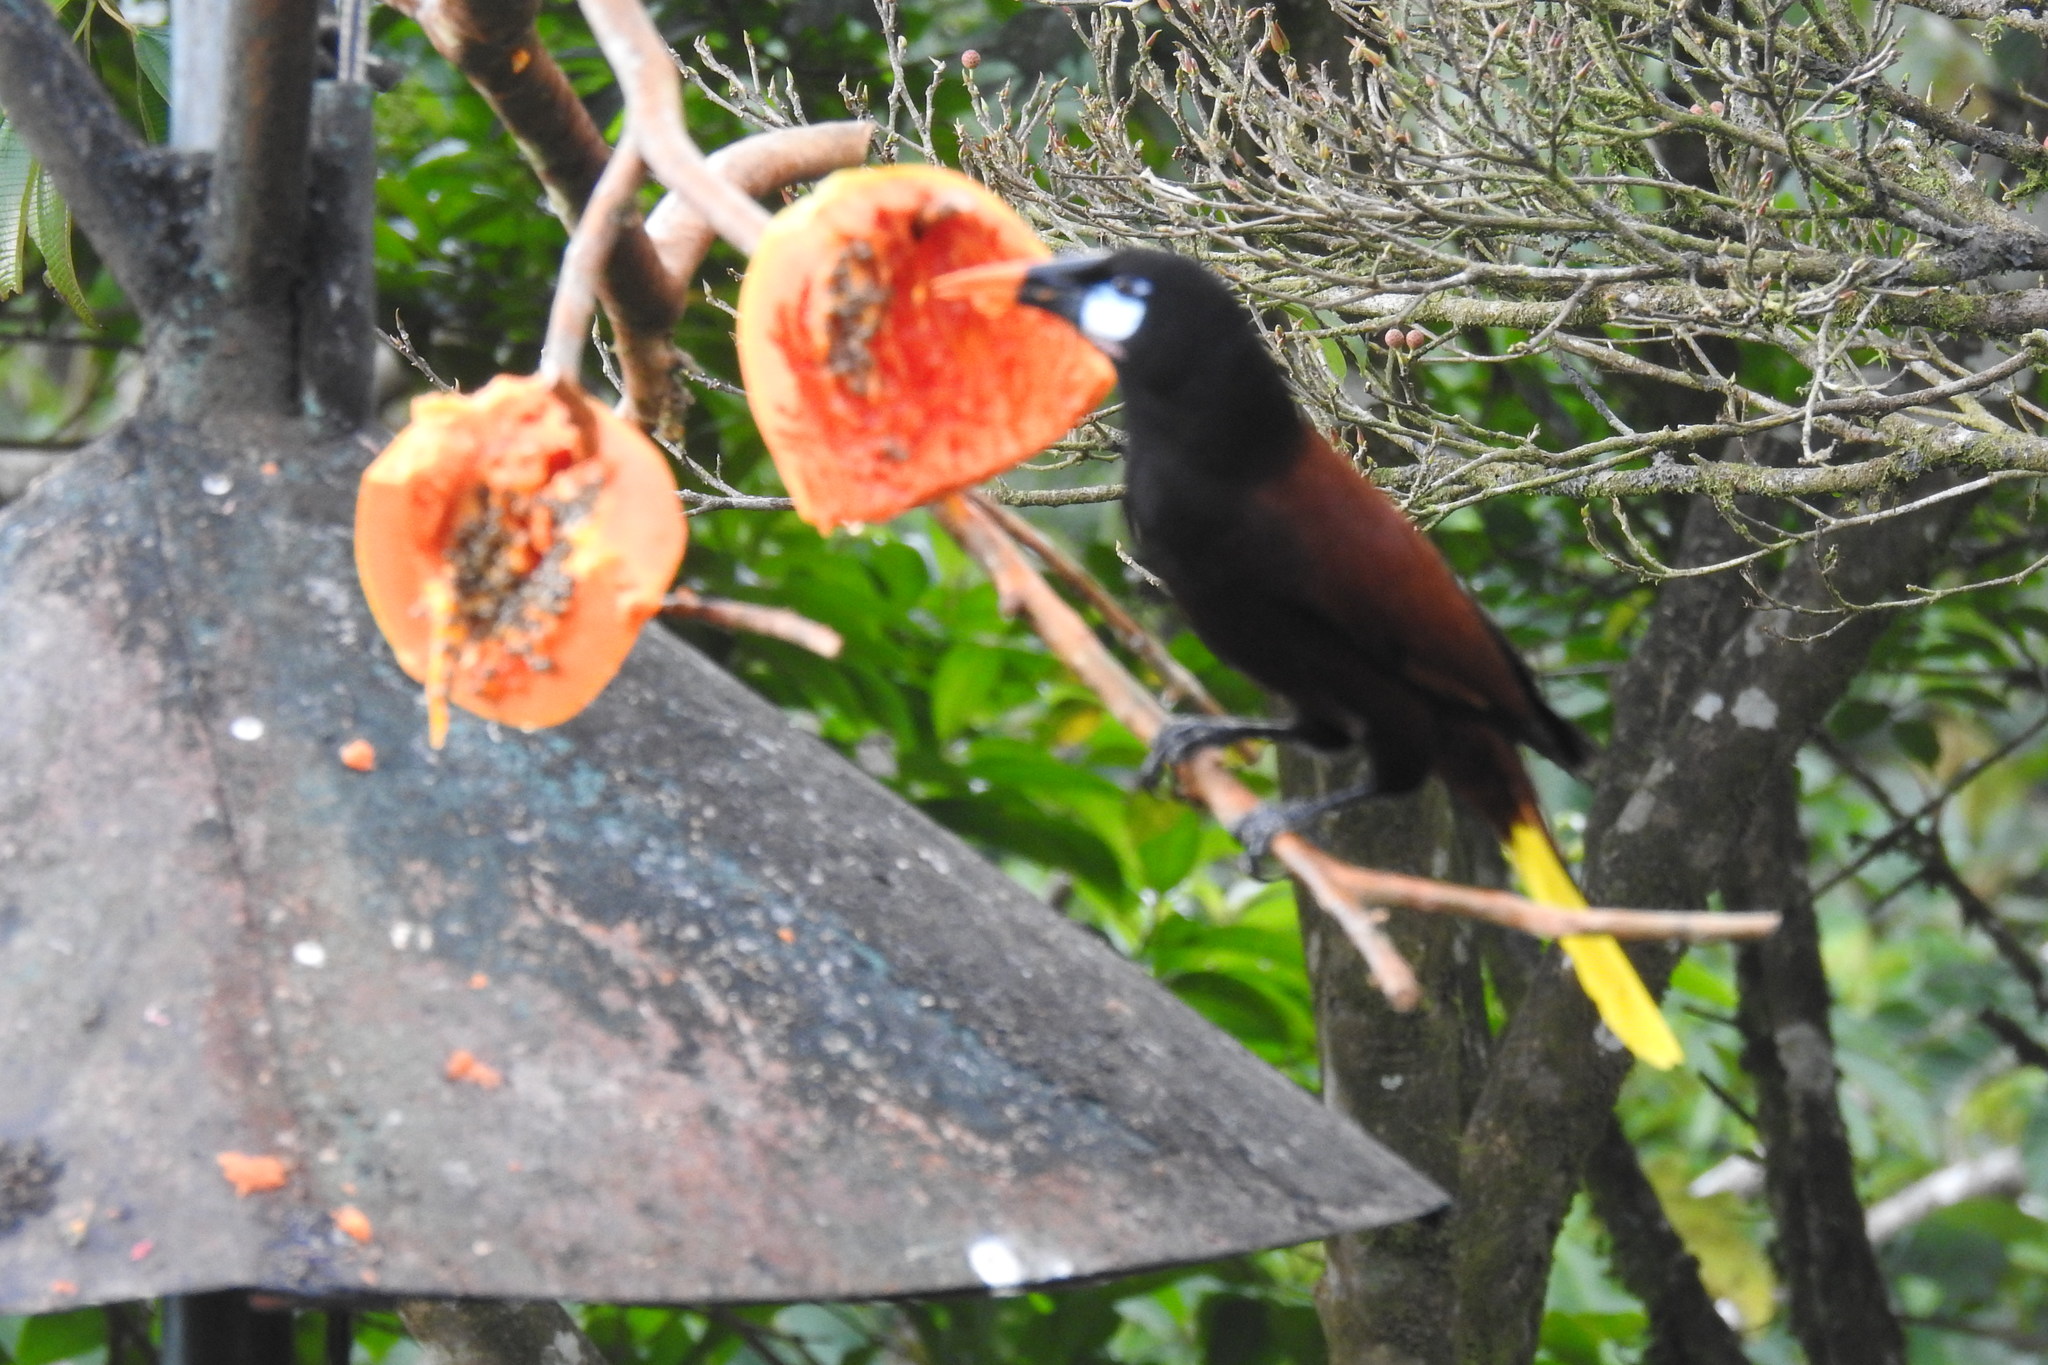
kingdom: Animalia
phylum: Chordata
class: Aves
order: Passeriformes
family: Icteridae
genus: Psarocolius
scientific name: Psarocolius montezuma
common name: Montezuma oropendola
